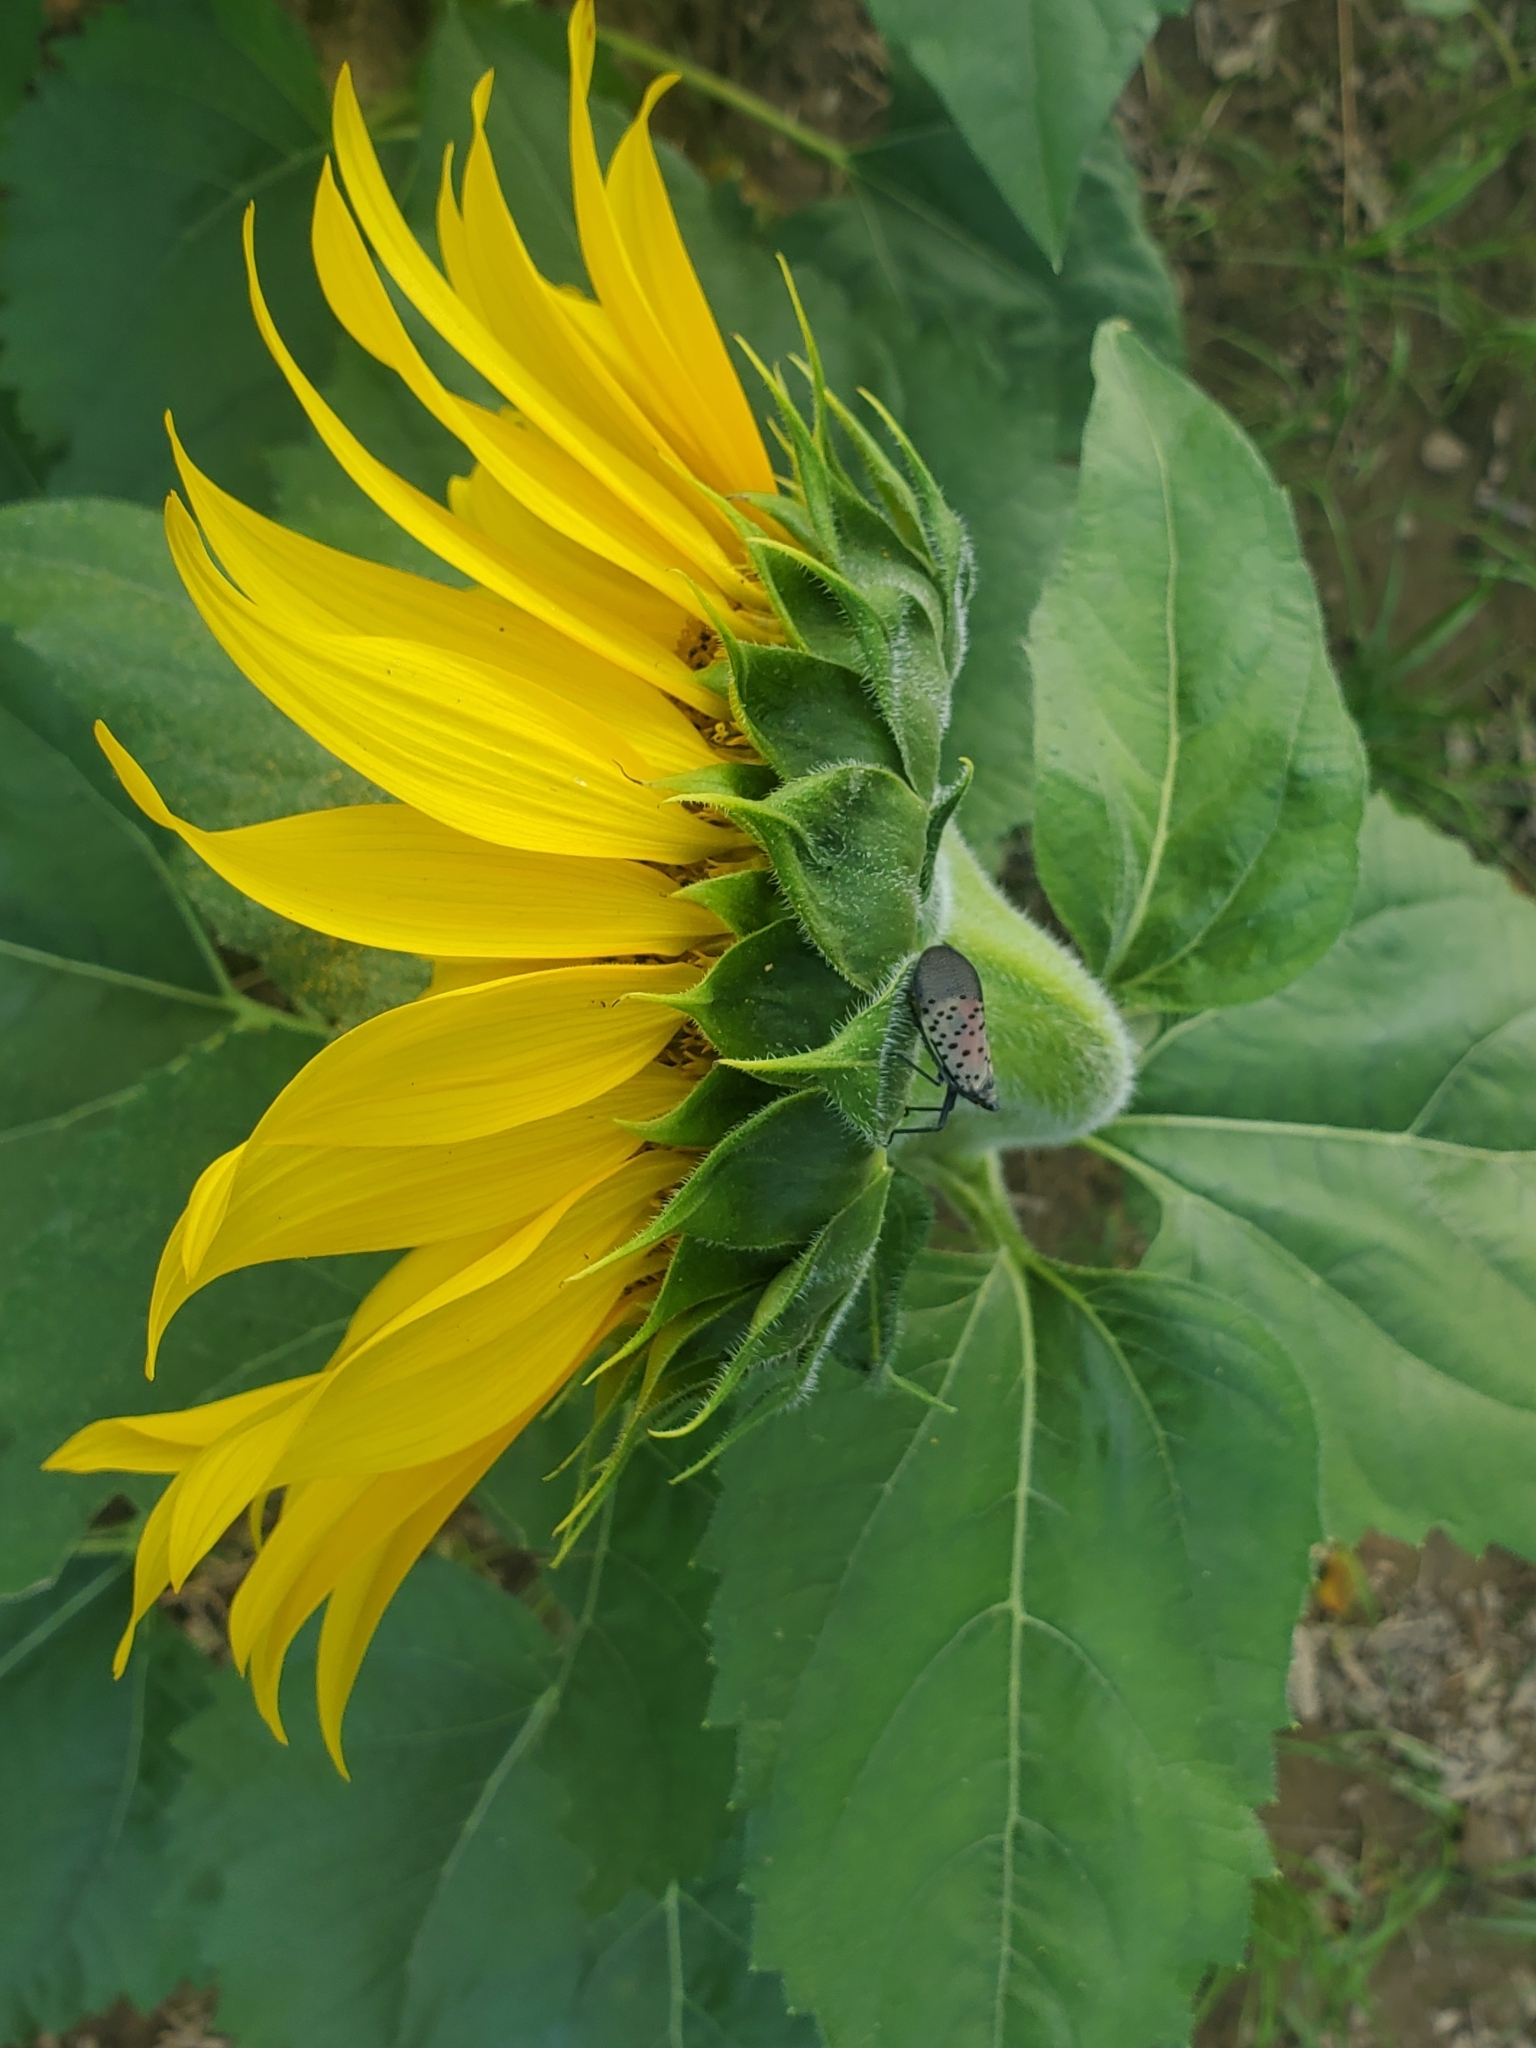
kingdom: Animalia
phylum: Arthropoda
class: Insecta
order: Hemiptera
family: Fulgoridae
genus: Lycorma
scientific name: Lycorma delicatula
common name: Spotted lanternfly
